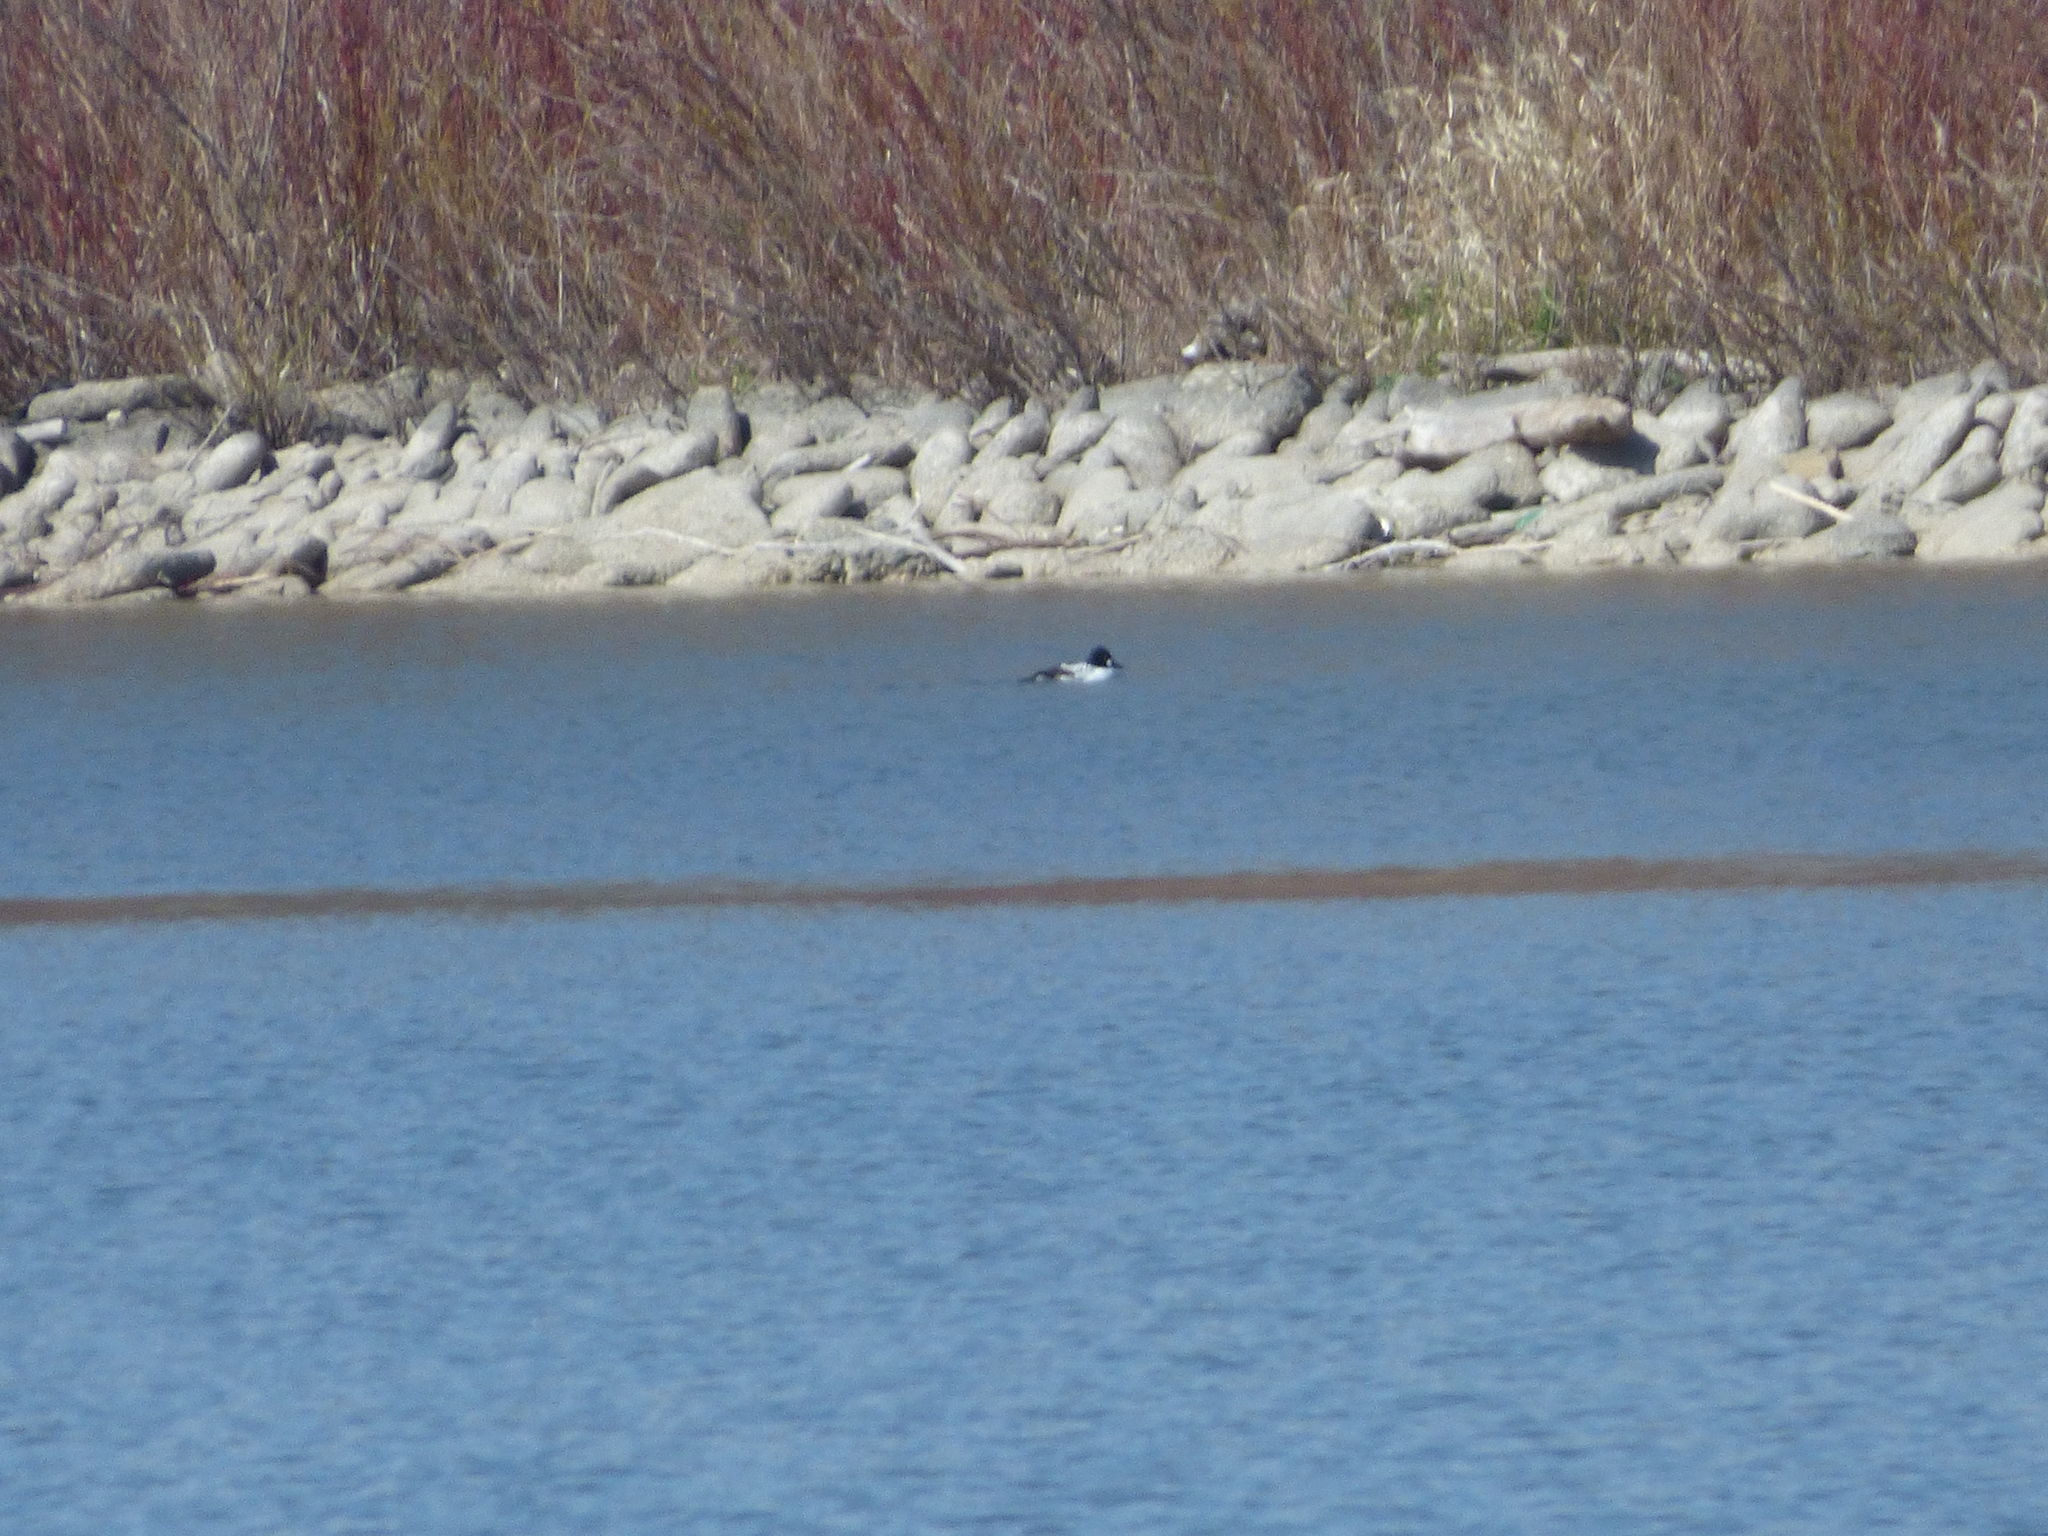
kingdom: Animalia
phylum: Chordata
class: Aves
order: Anseriformes
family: Anatidae
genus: Bucephala
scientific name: Bucephala clangula
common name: Common goldeneye
